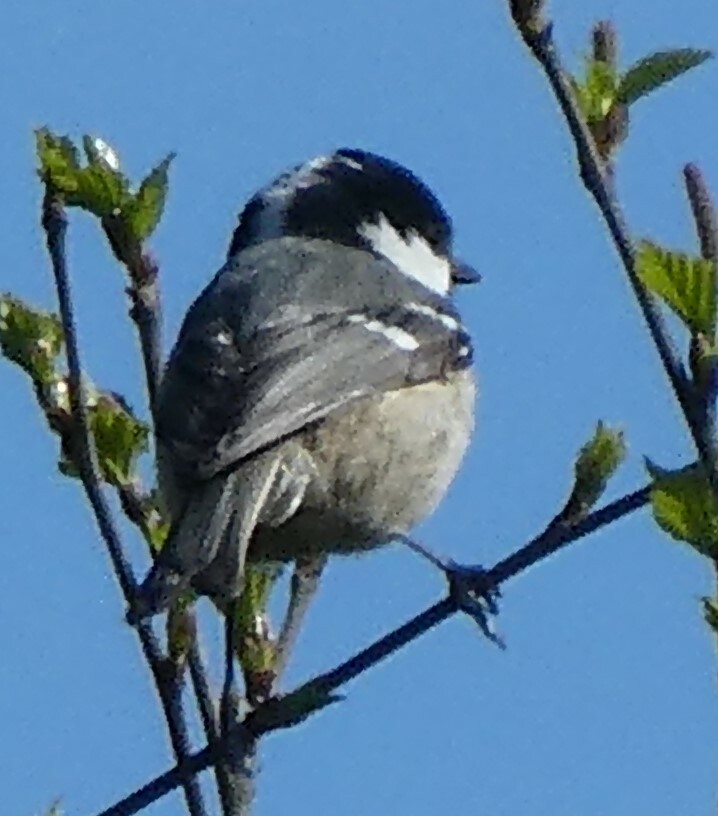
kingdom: Animalia
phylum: Chordata
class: Aves
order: Passeriformes
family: Paridae
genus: Periparus
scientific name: Periparus ater
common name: Coal tit
